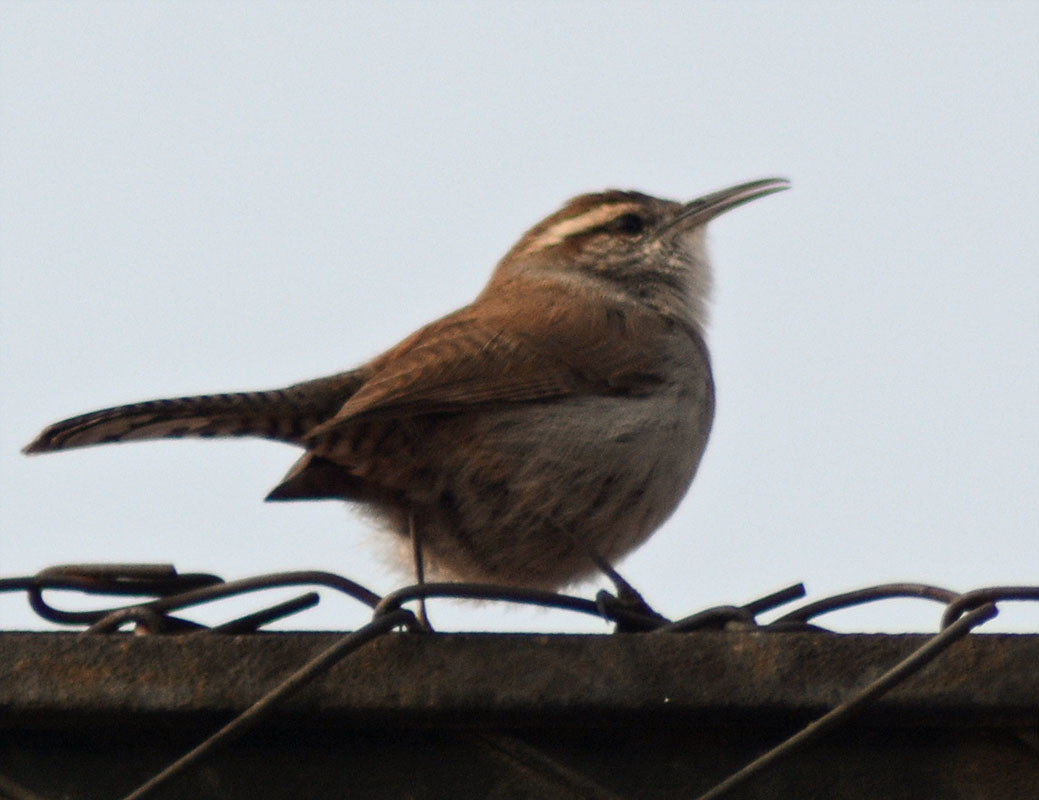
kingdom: Animalia
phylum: Chordata
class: Aves
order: Passeriformes
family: Troglodytidae
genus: Thryomanes
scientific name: Thryomanes bewickii
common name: Bewick's wren
